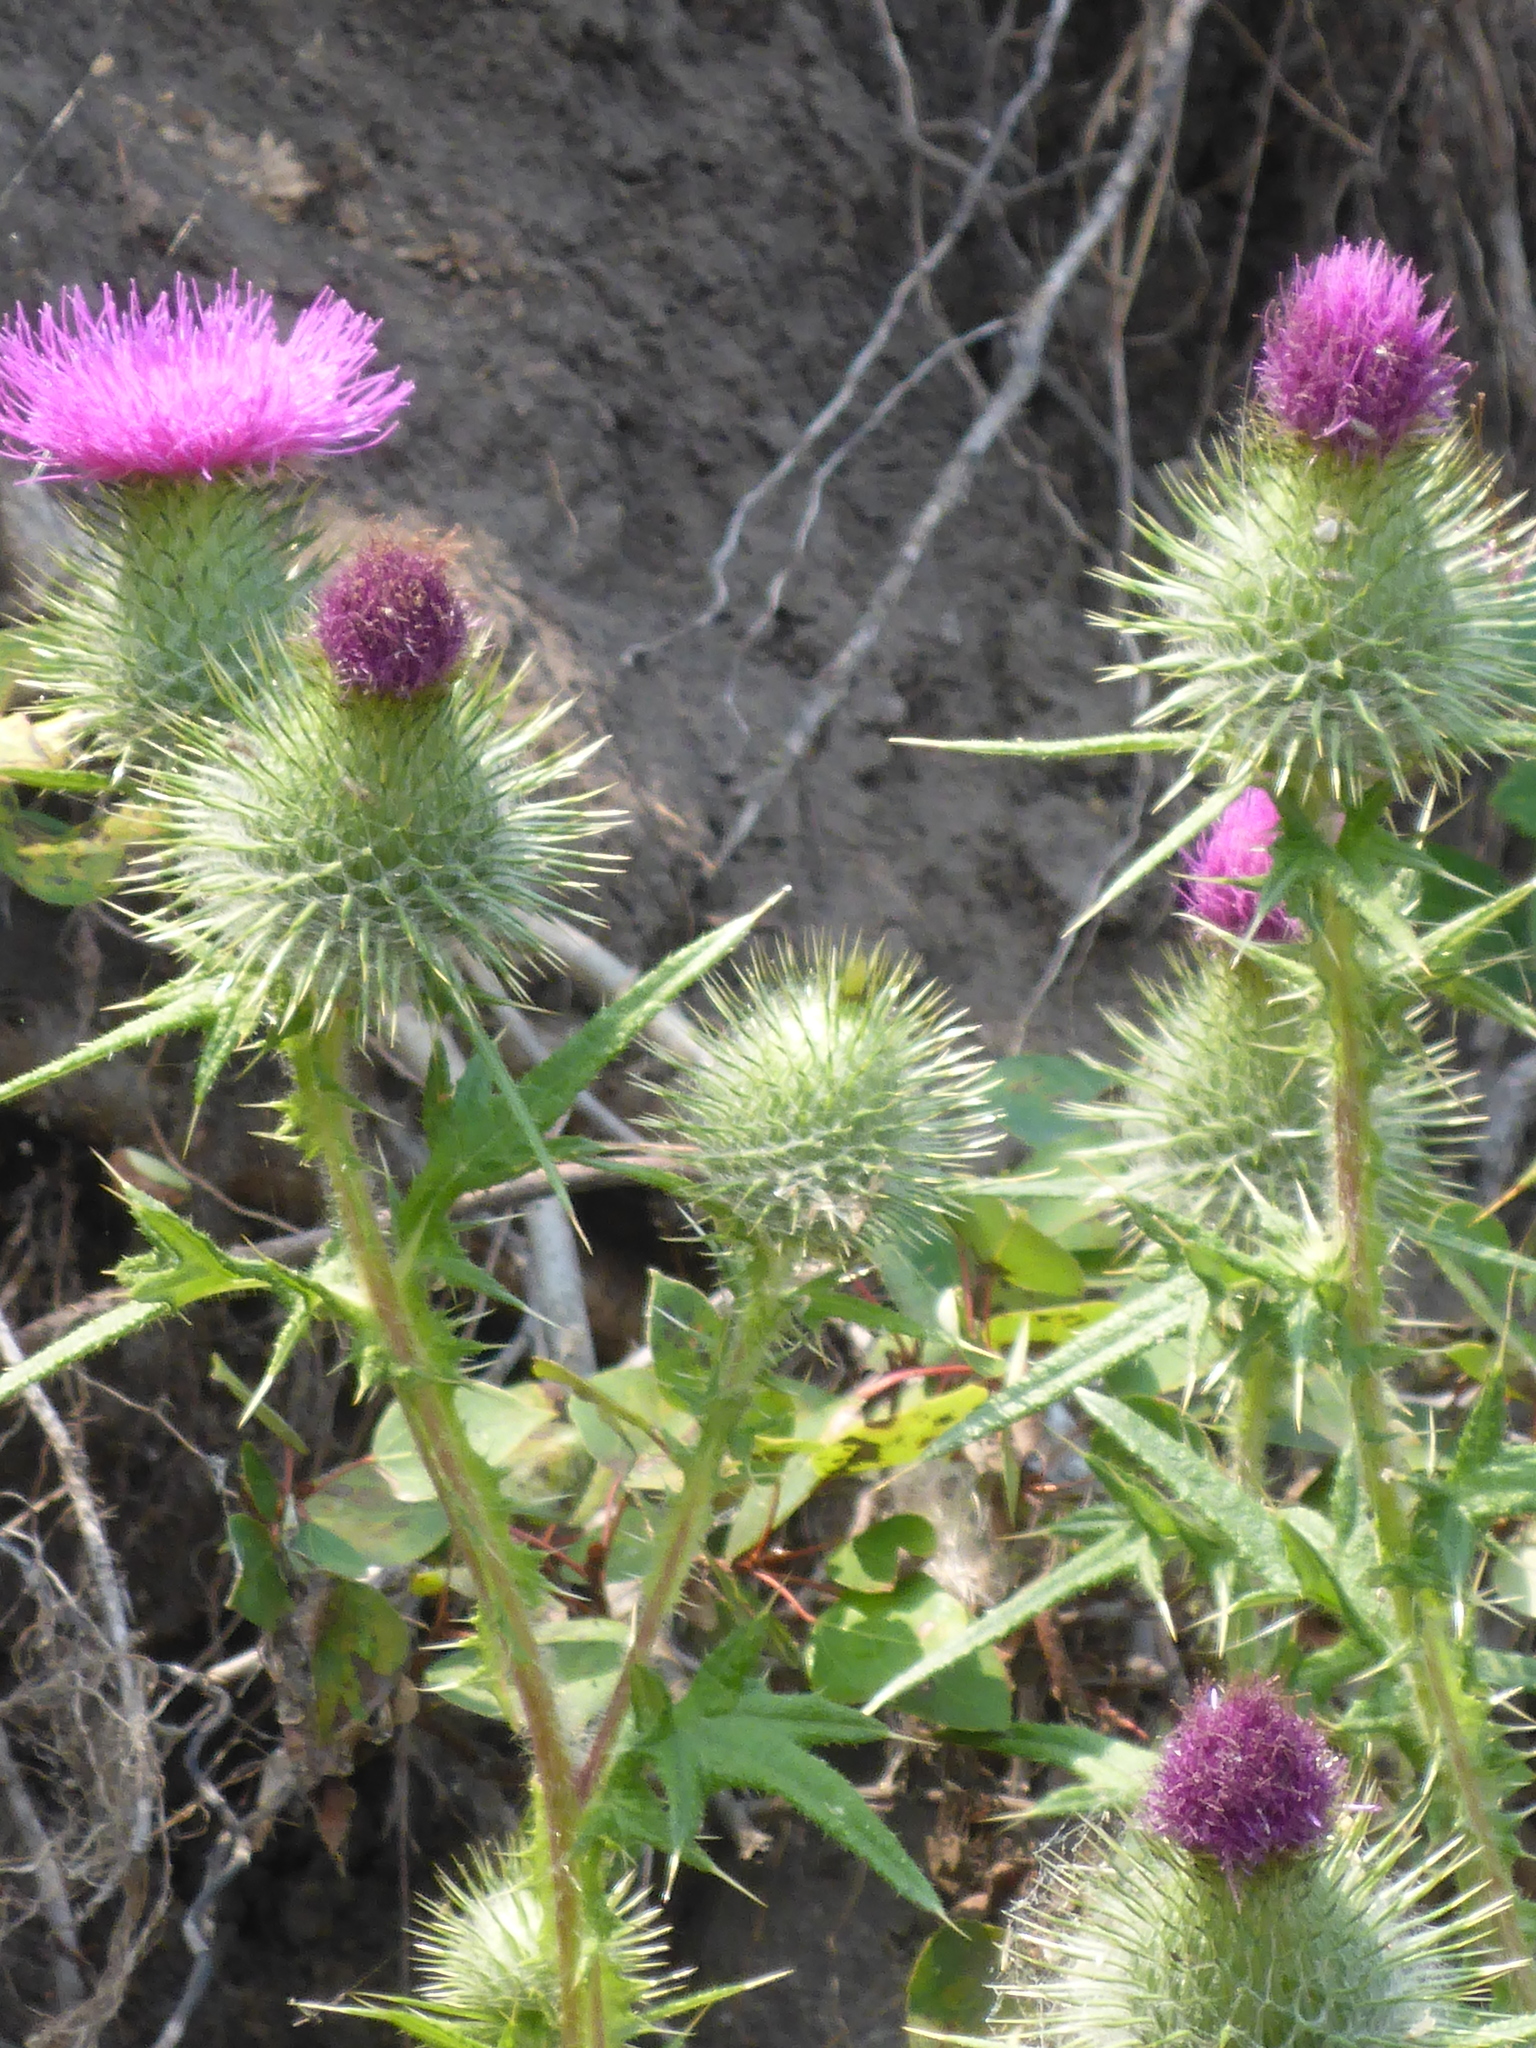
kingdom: Plantae
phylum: Tracheophyta
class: Magnoliopsida
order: Asterales
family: Asteraceae
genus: Cirsium
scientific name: Cirsium vulgare
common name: Bull thistle
